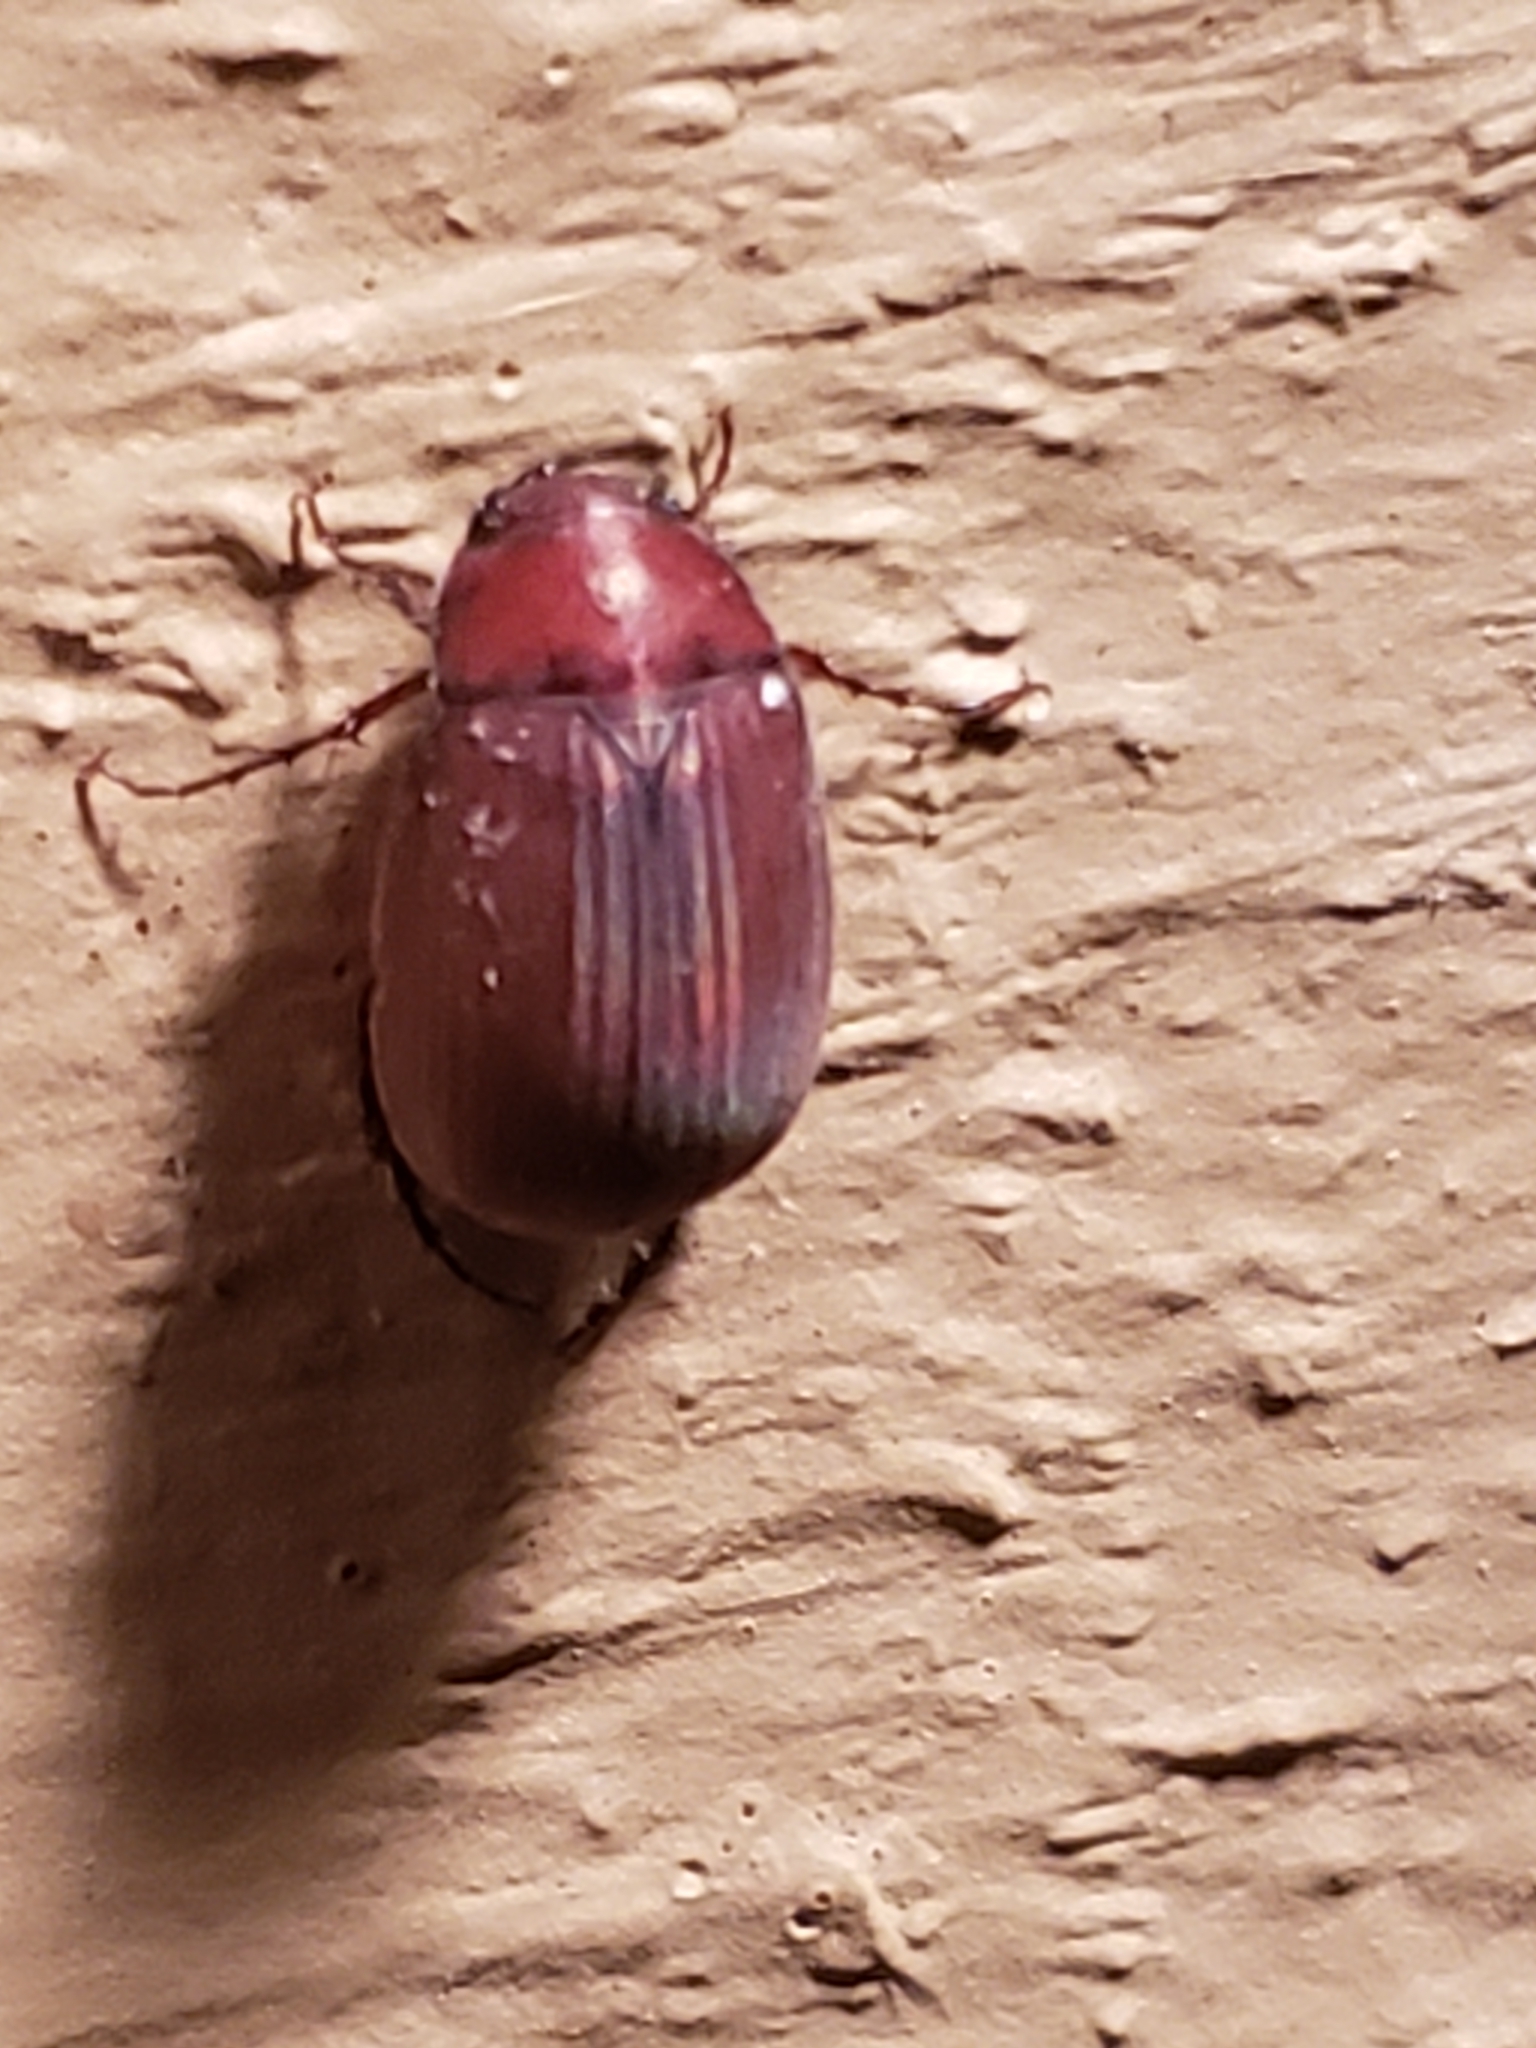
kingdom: Animalia
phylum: Arthropoda
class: Insecta
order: Coleoptera
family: Scarabaeidae
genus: Maladera
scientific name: Maladera formosae
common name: Asiatic garden beetle
